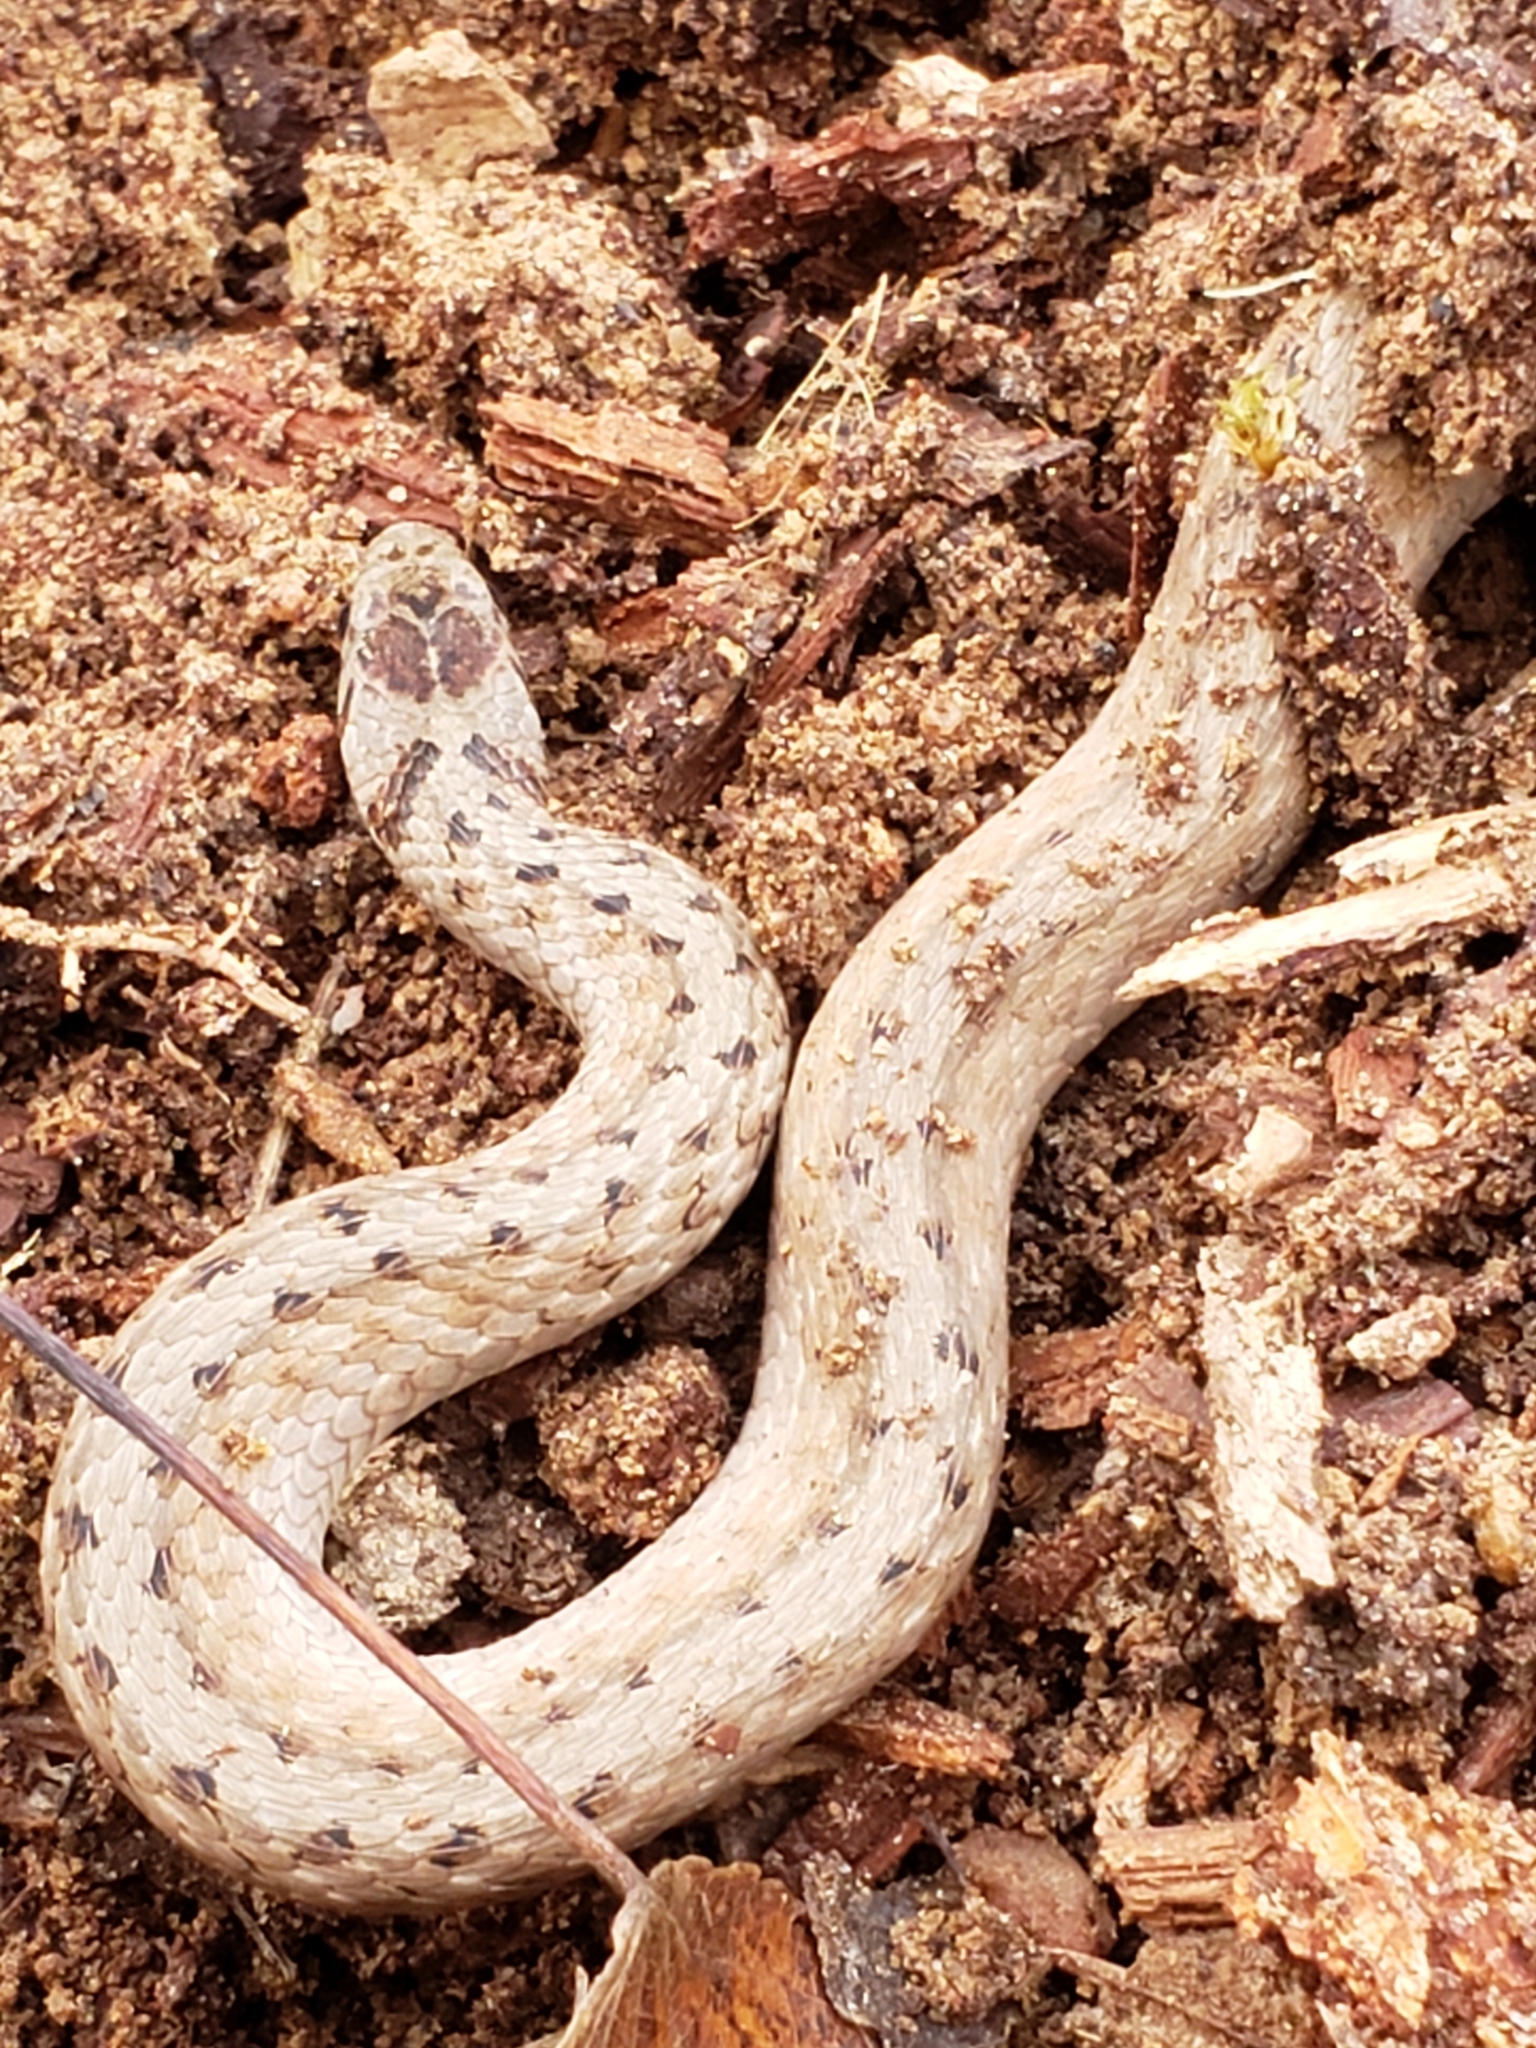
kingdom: Animalia
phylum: Chordata
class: Squamata
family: Colubridae
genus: Storeria
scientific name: Storeria dekayi
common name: (dekay’s) brown snake
